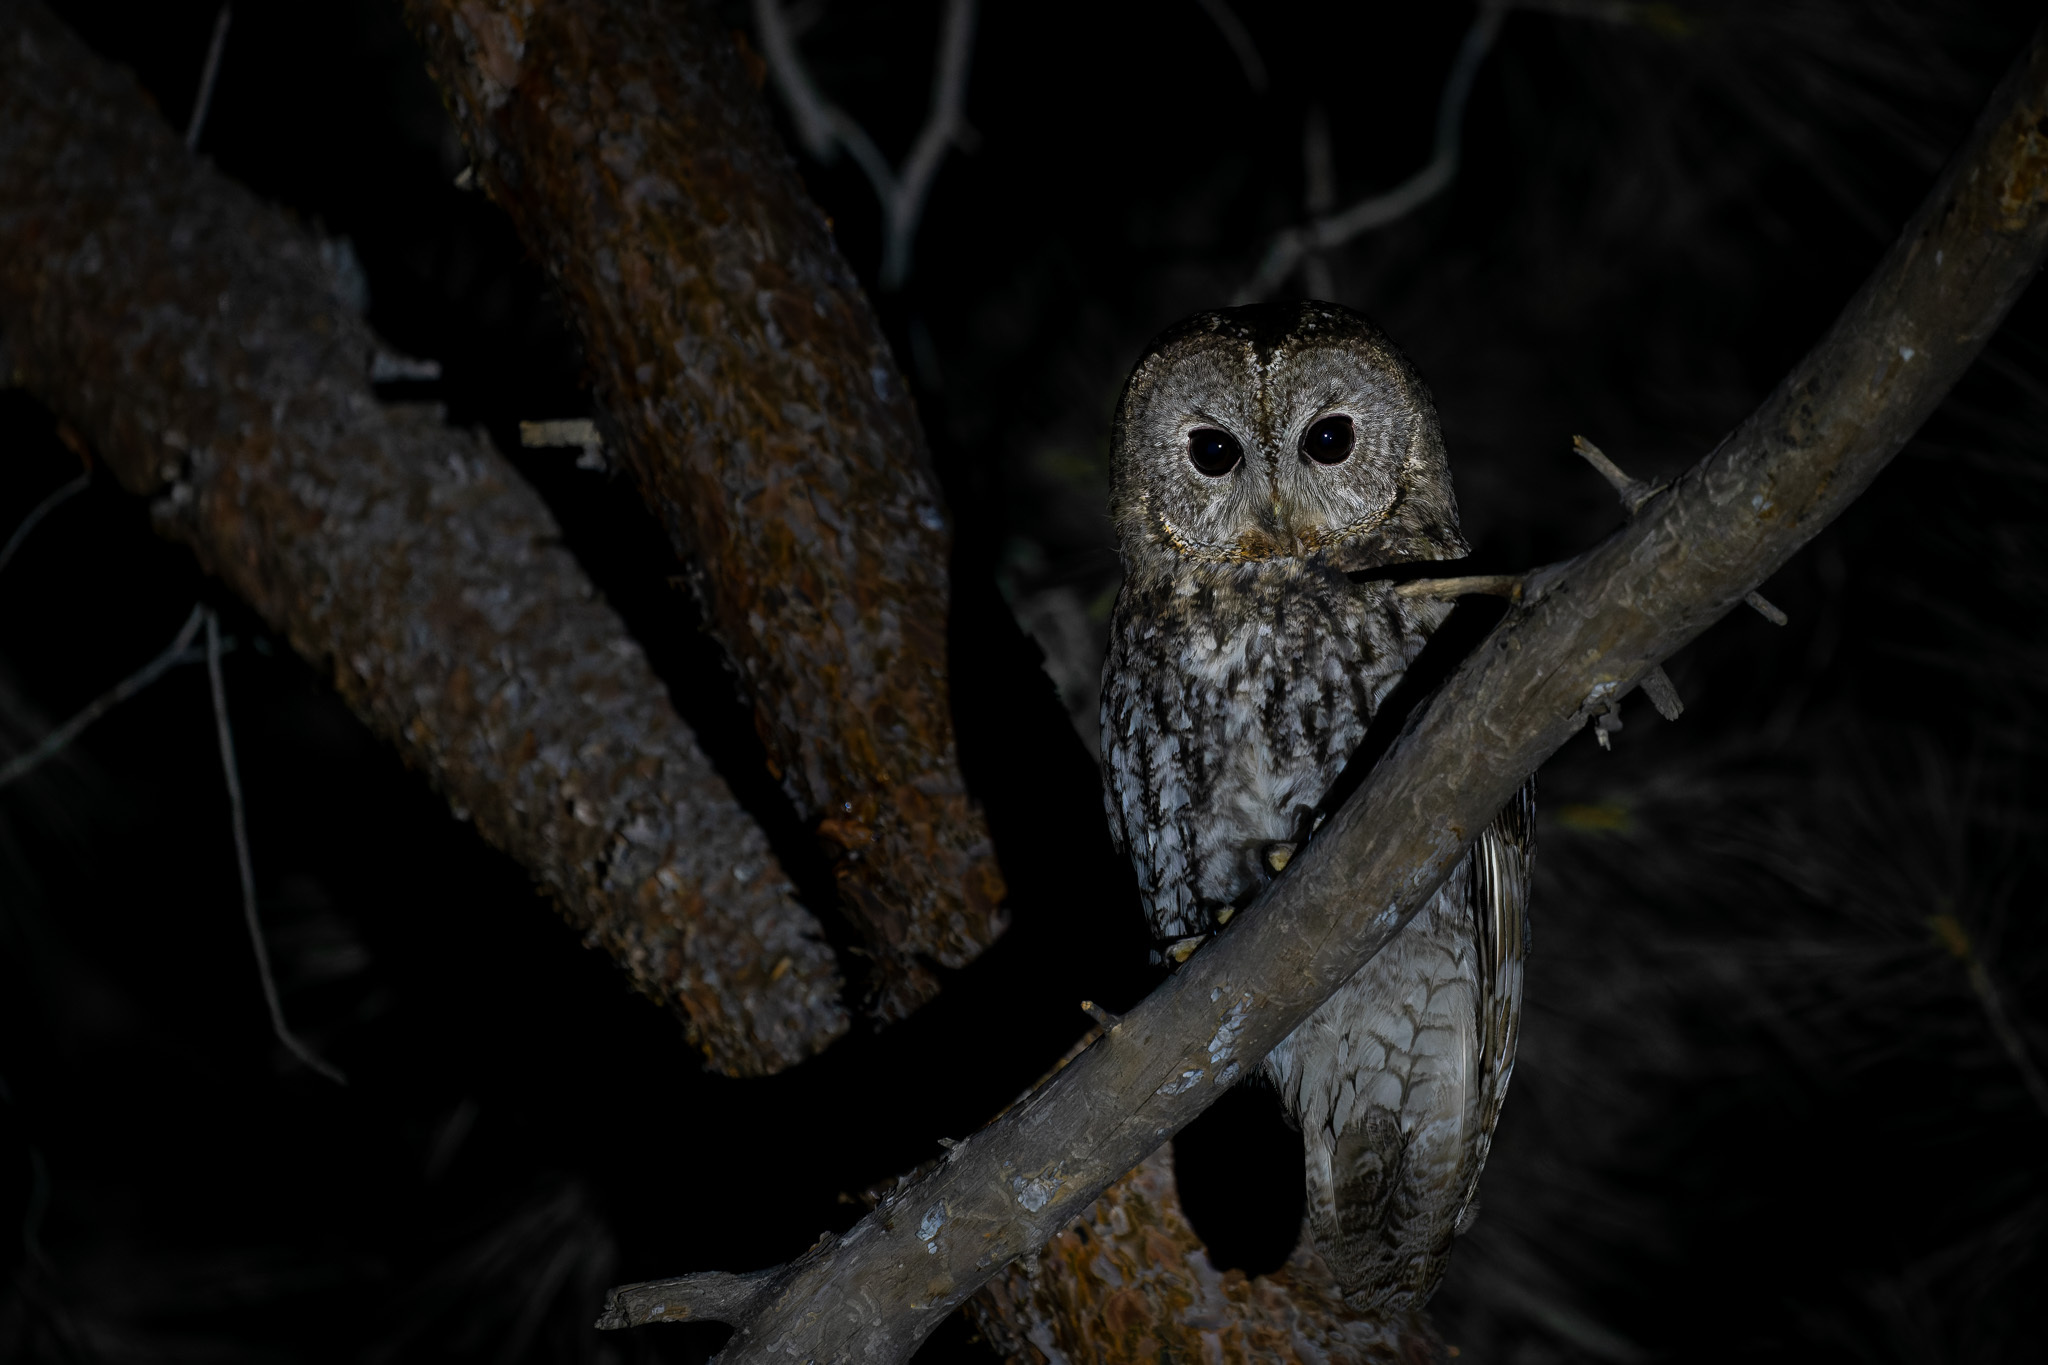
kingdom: Animalia
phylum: Chordata
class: Aves
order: Strigiformes
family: Strigidae
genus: Strix
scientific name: Strix aluco
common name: Tawny owl
